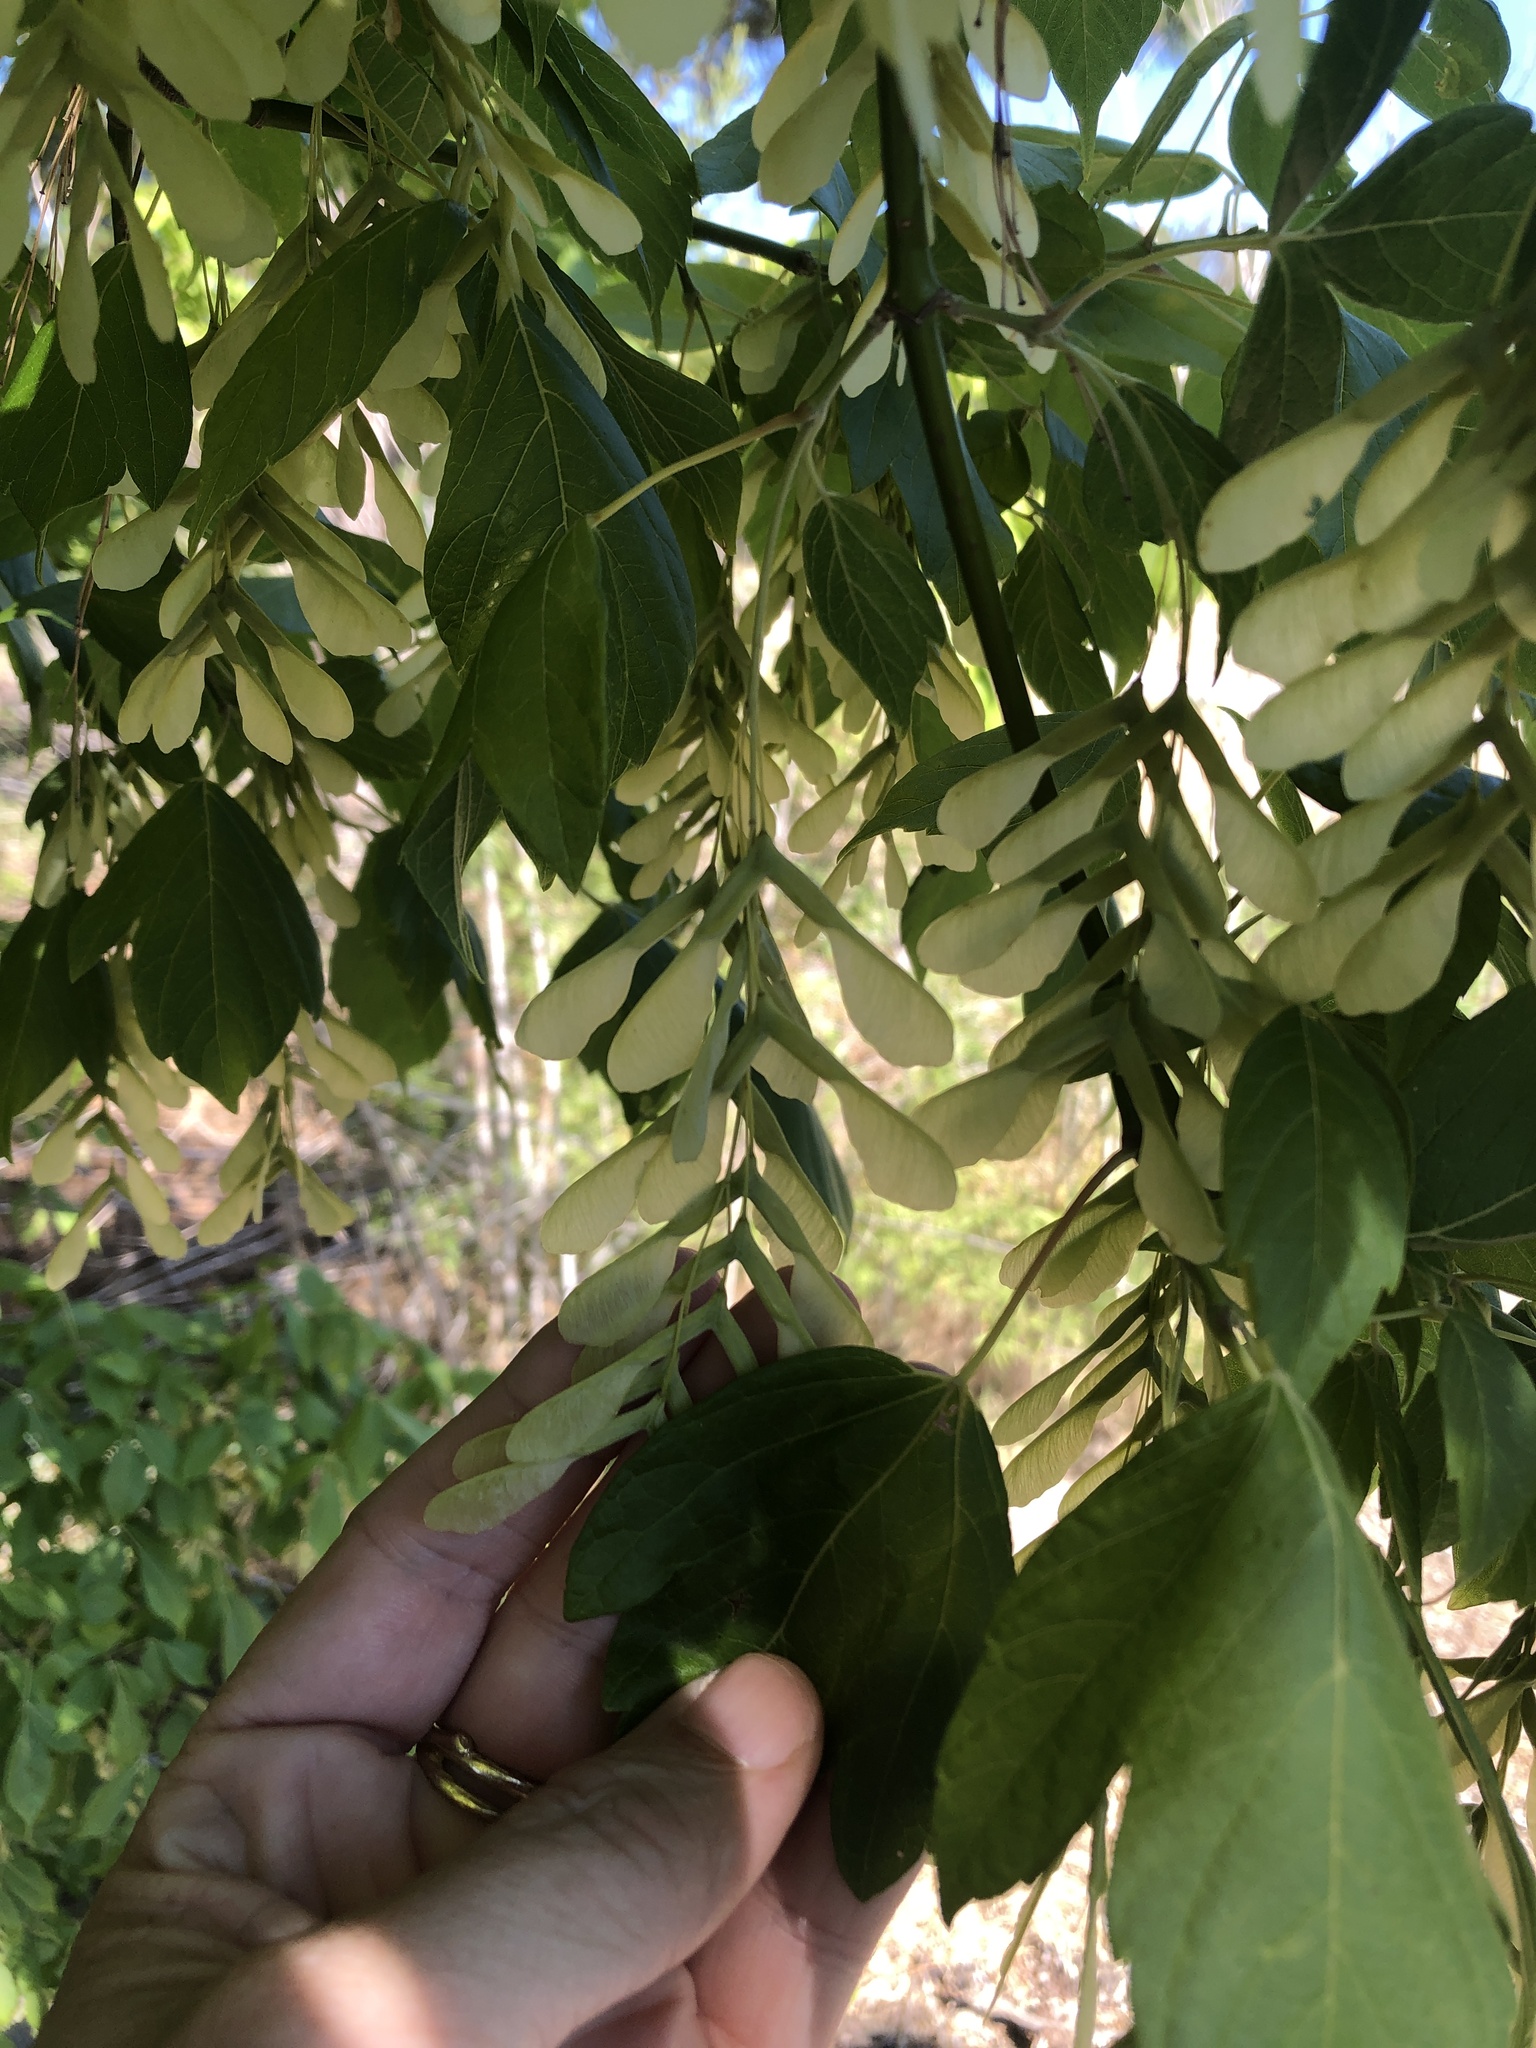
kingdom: Plantae
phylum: Tracheophyta
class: Magnoliopsida
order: Sapindales
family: Sapindaceae
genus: Acer
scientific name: Acer negundo
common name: Ashleaf maple
